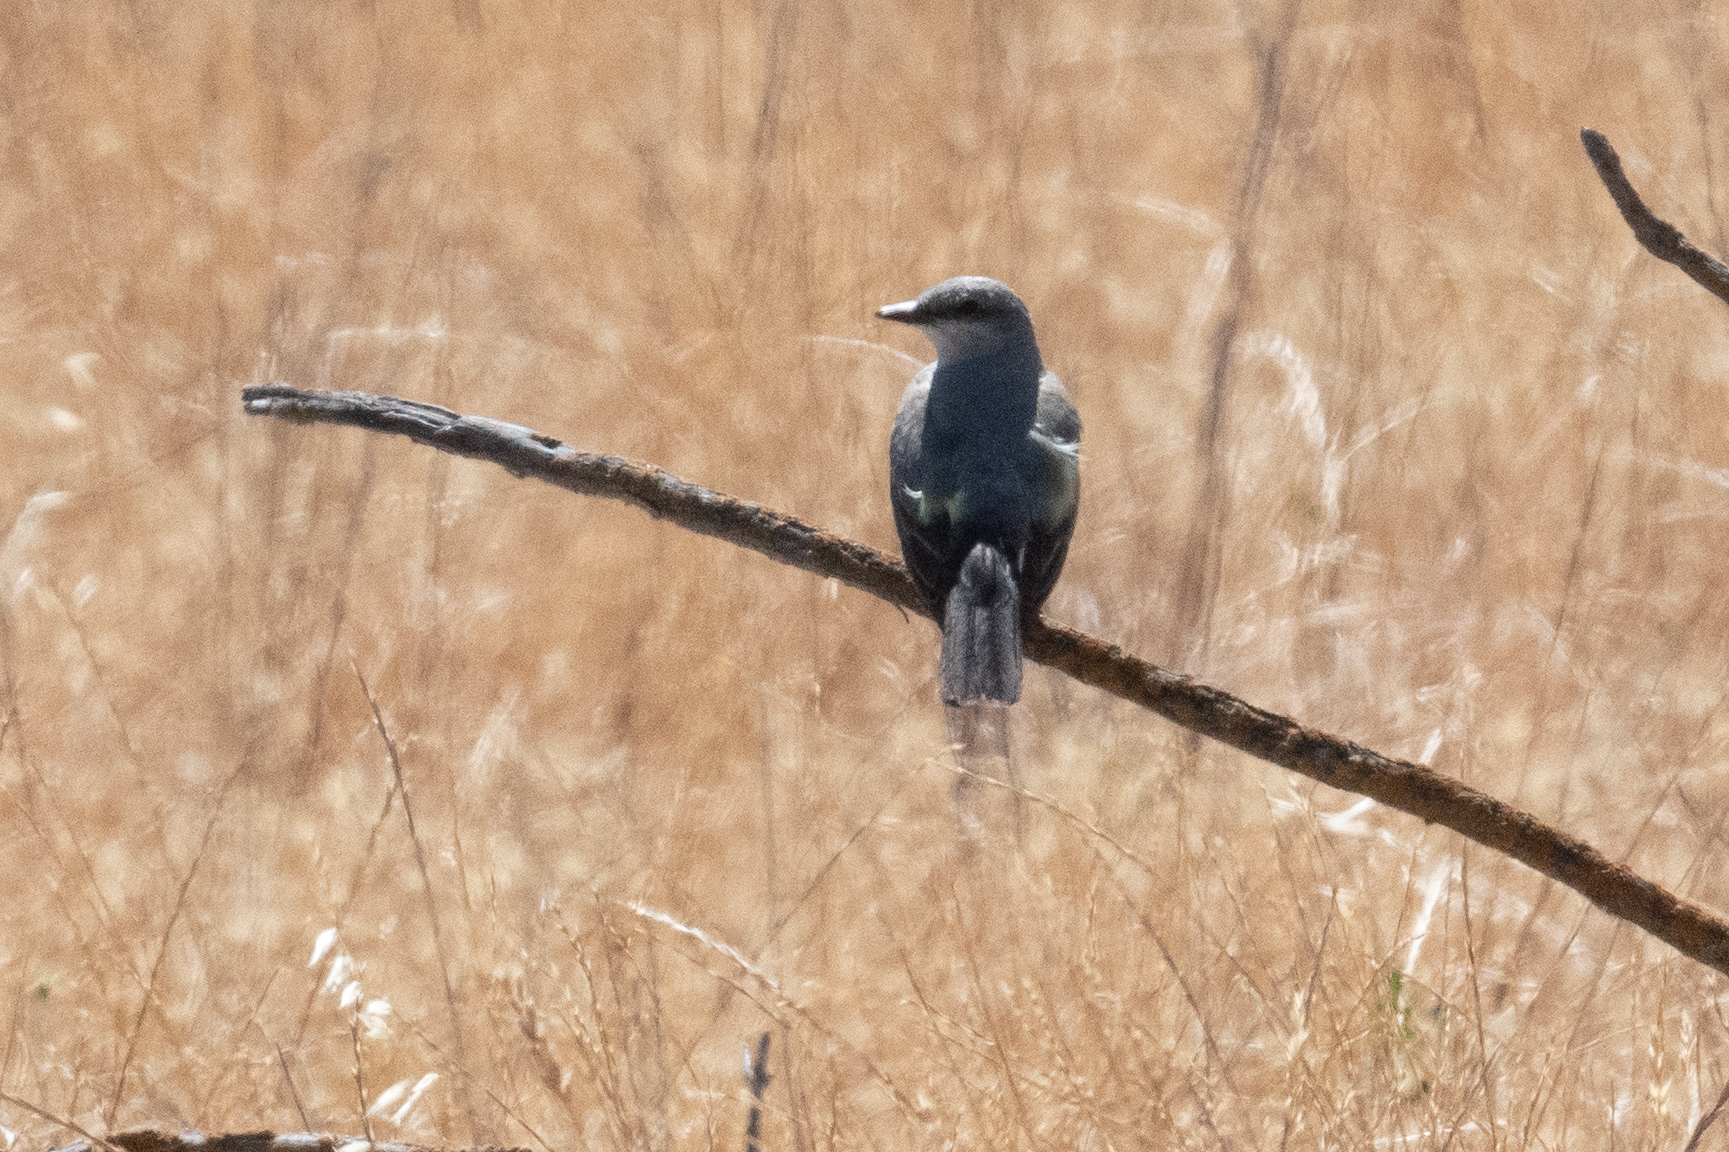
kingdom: Animalia
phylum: Chordata
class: Aves
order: Passeriformes
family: Tyrannidae
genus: Tyrannus
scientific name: Tyrannus verticalis
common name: Western kingbird
